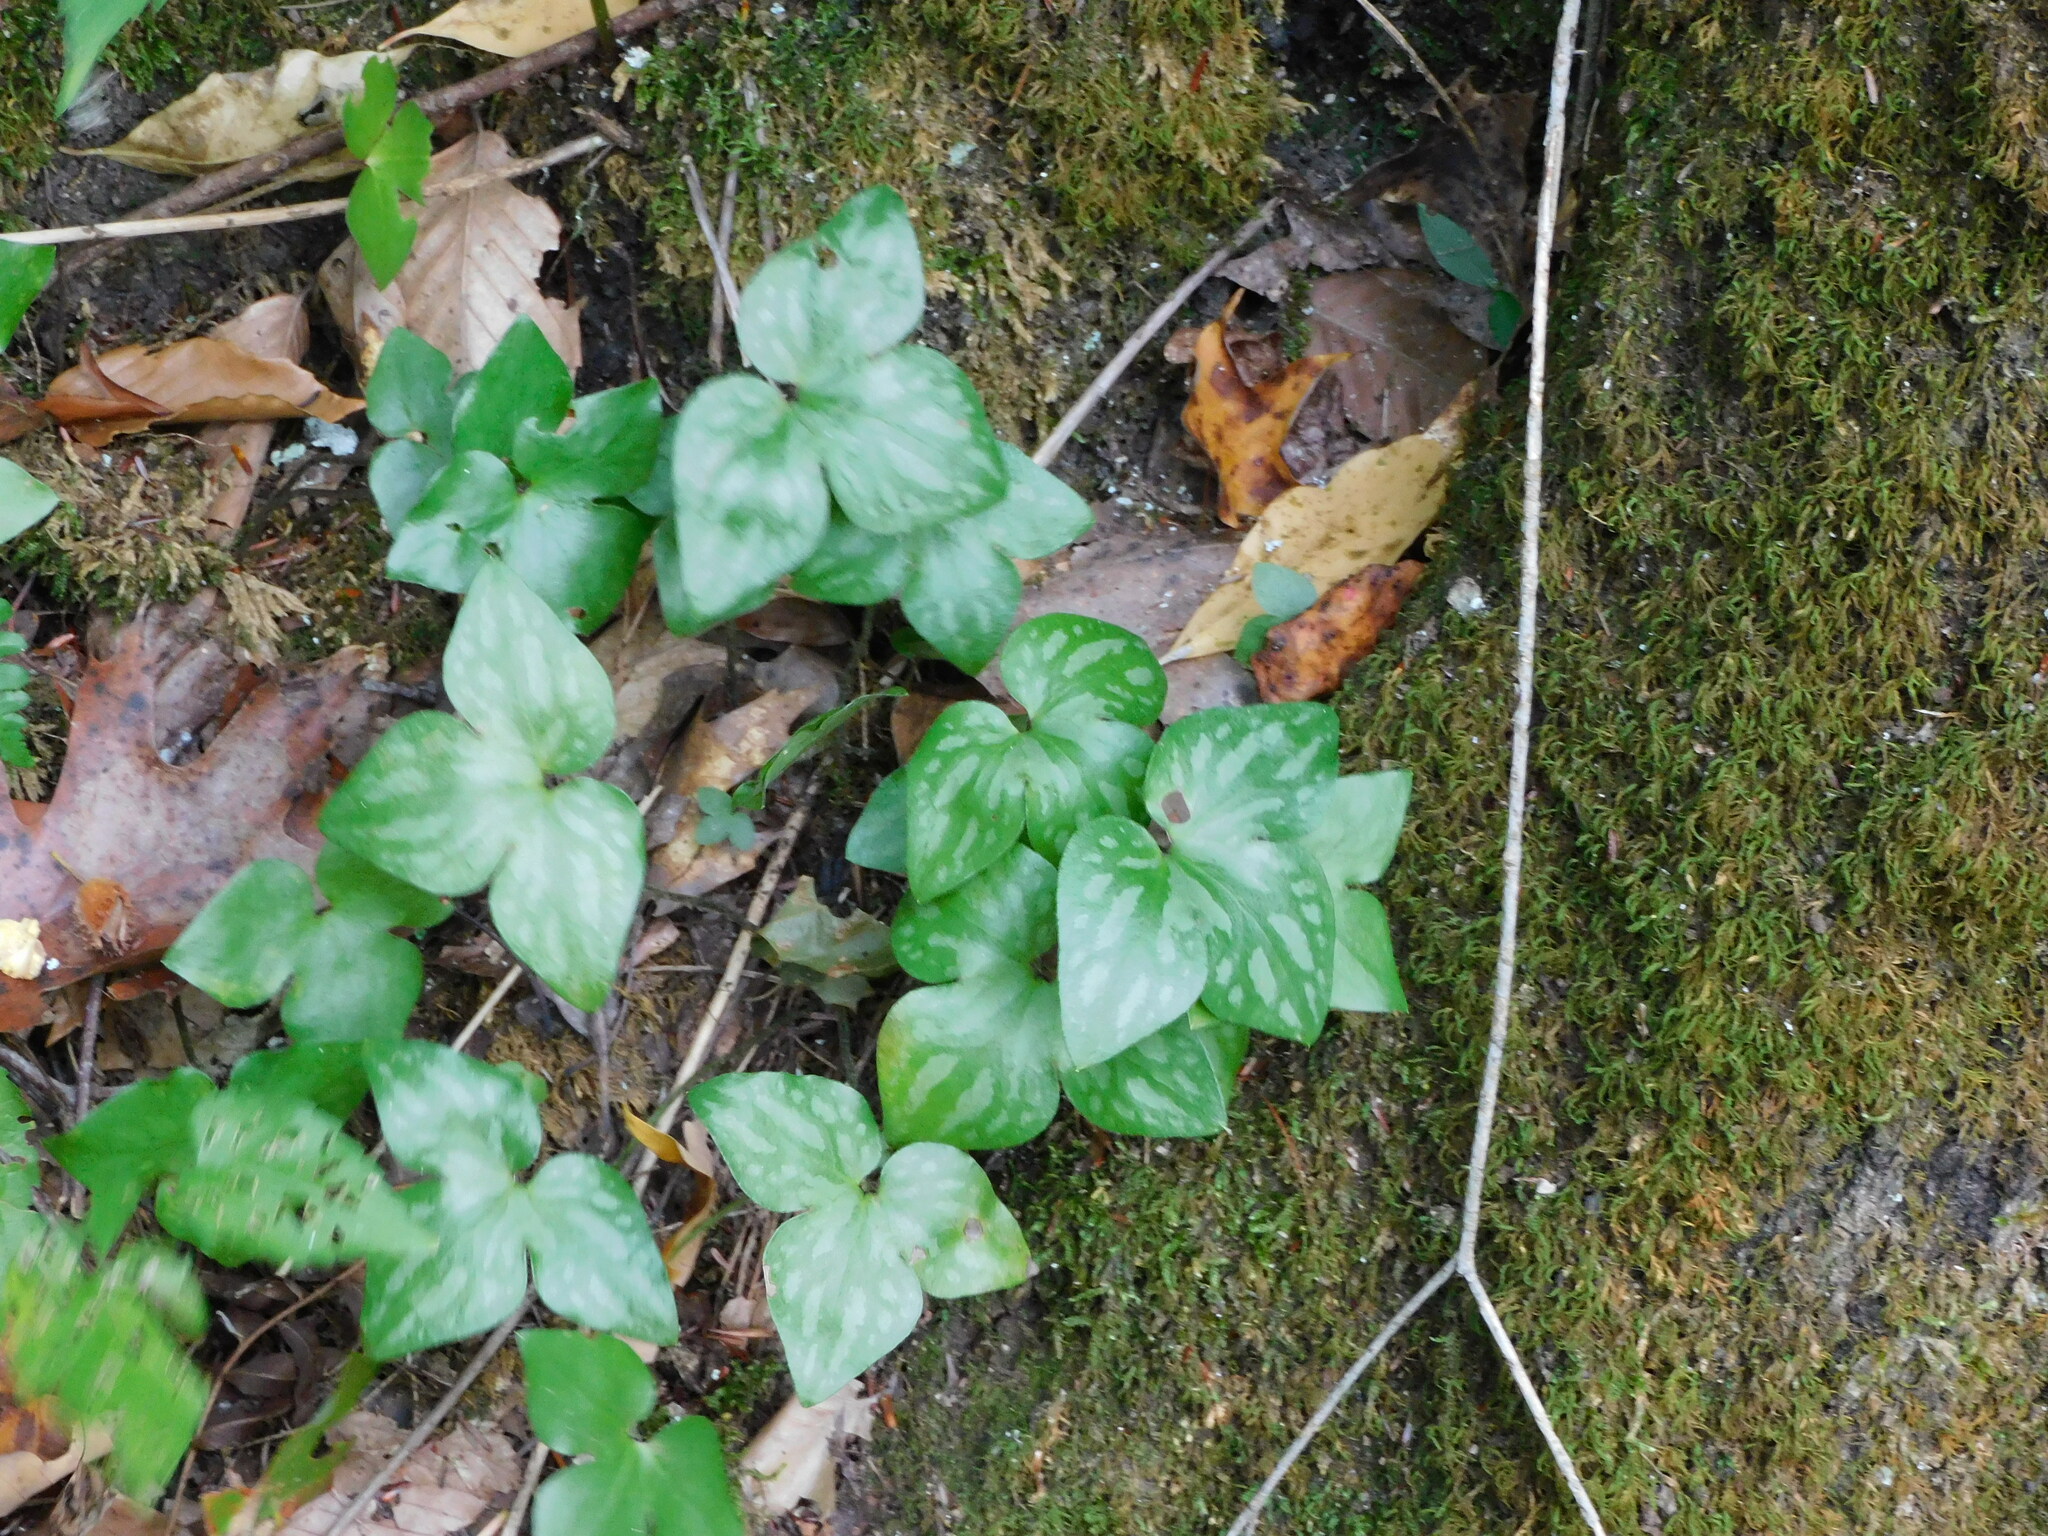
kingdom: Plantae
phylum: Tracheophyta
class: Magnoliopsida
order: Ranunculales
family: Ranunculaceae
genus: Hepatica
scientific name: Hepatica acutiloba
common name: Sharp-lobed hepatica
